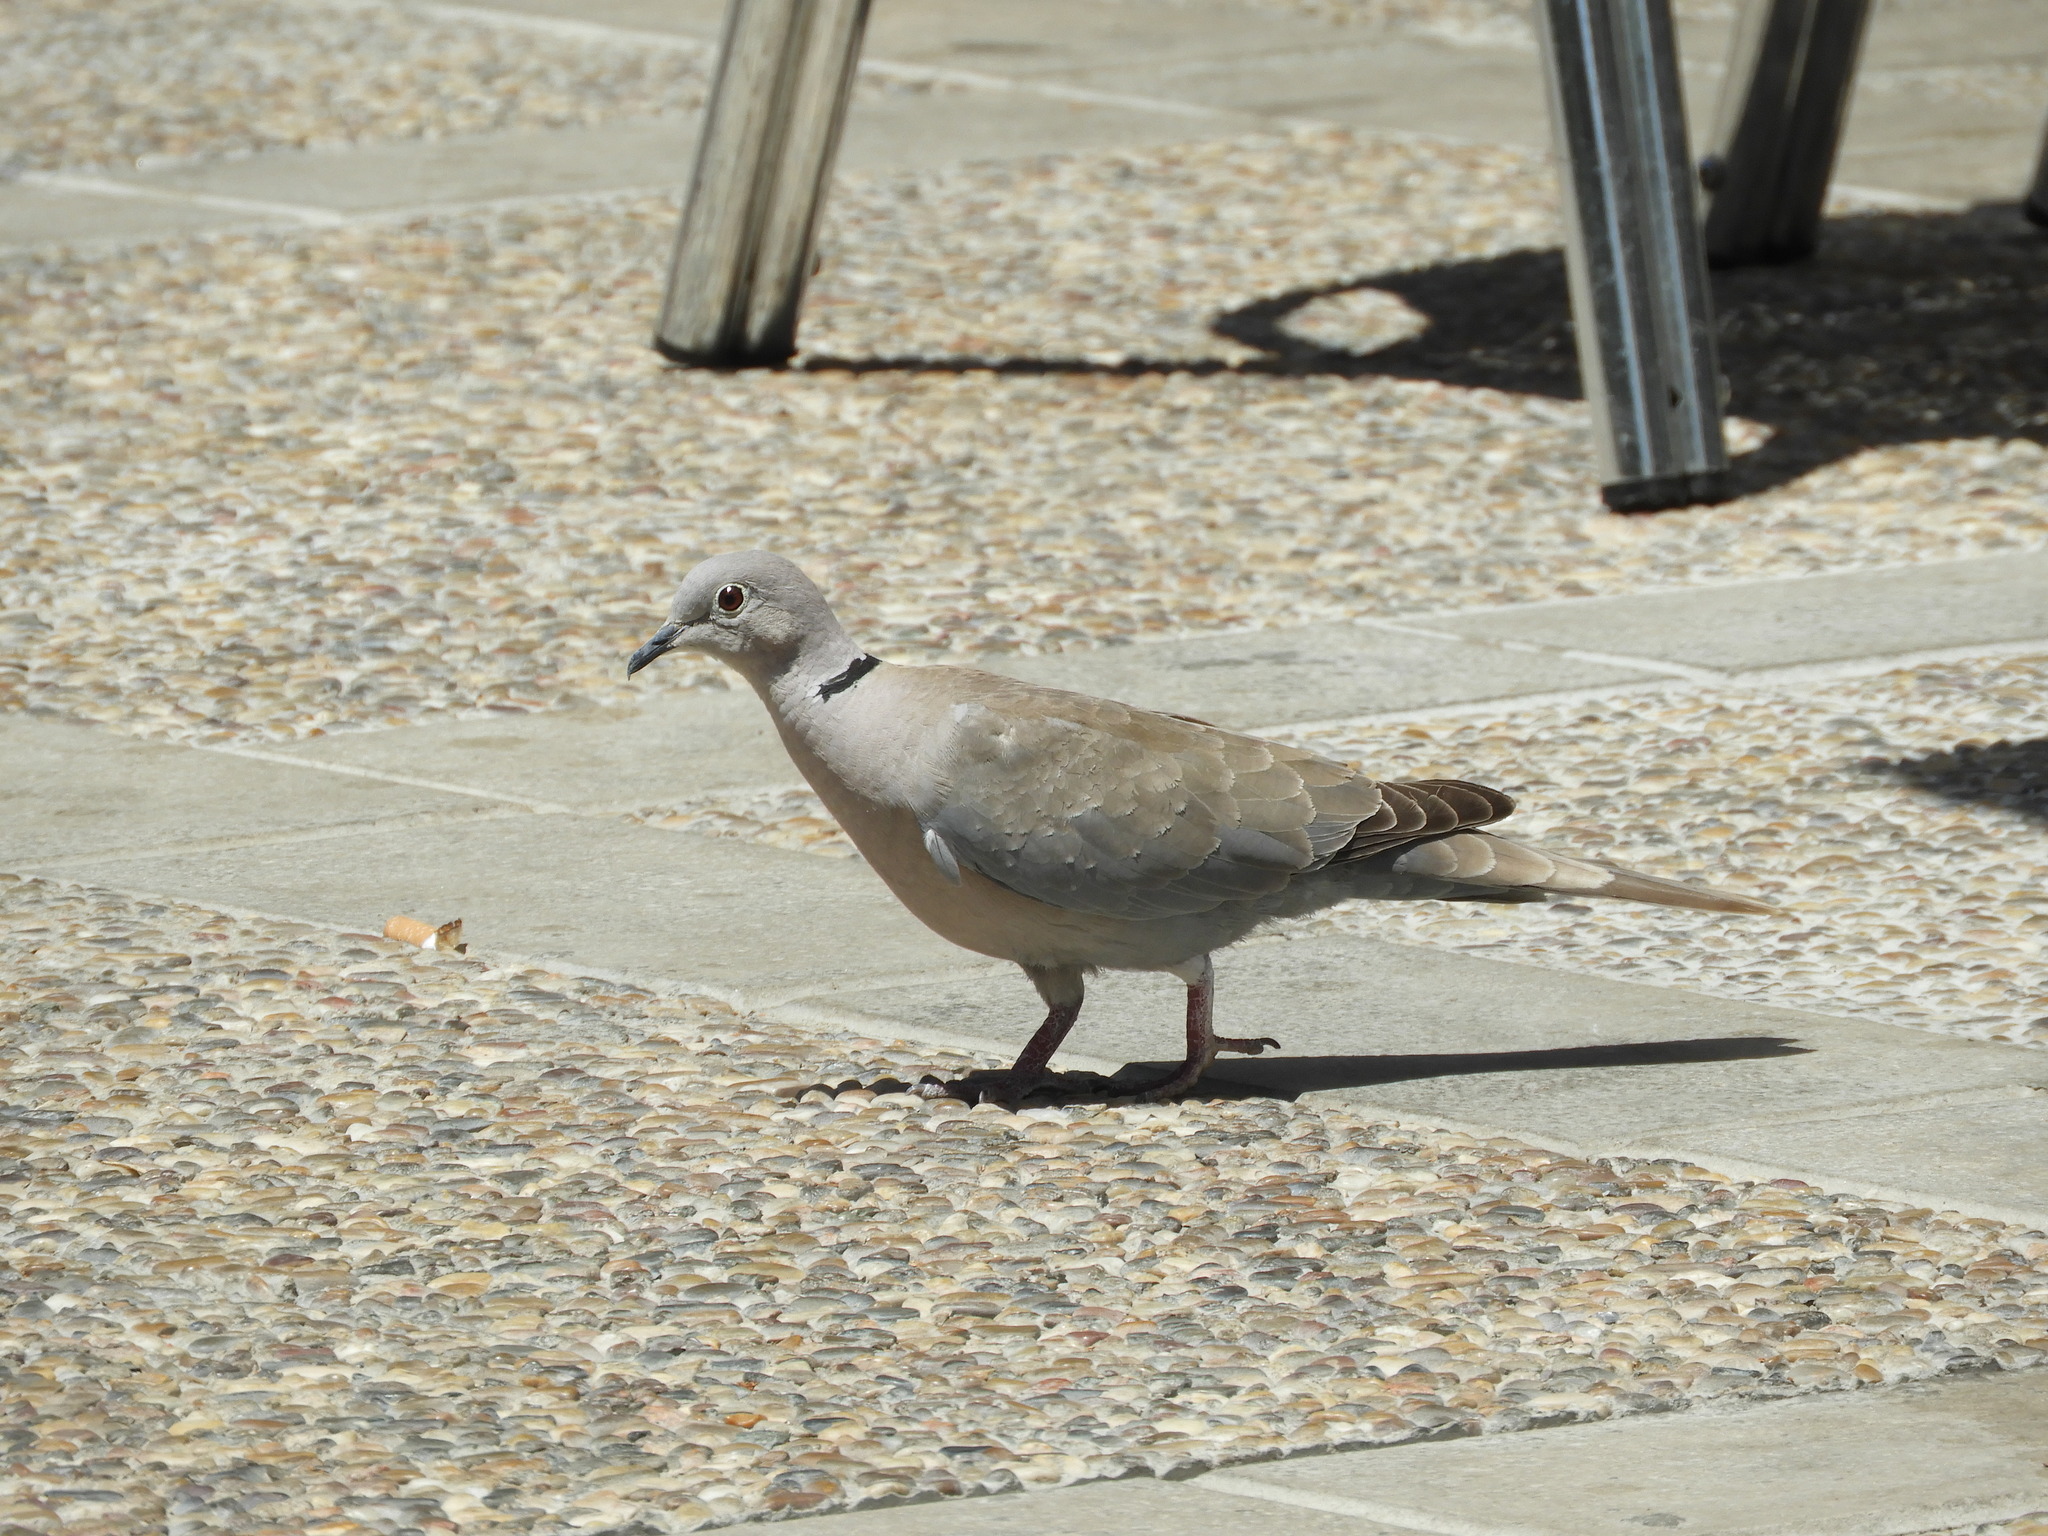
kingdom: Animalia
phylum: Chordata
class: Aves
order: Columbiformes
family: Columbidae
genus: Streptopelia
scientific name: Streptopelia decaocto
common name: Eurasian collared dove
